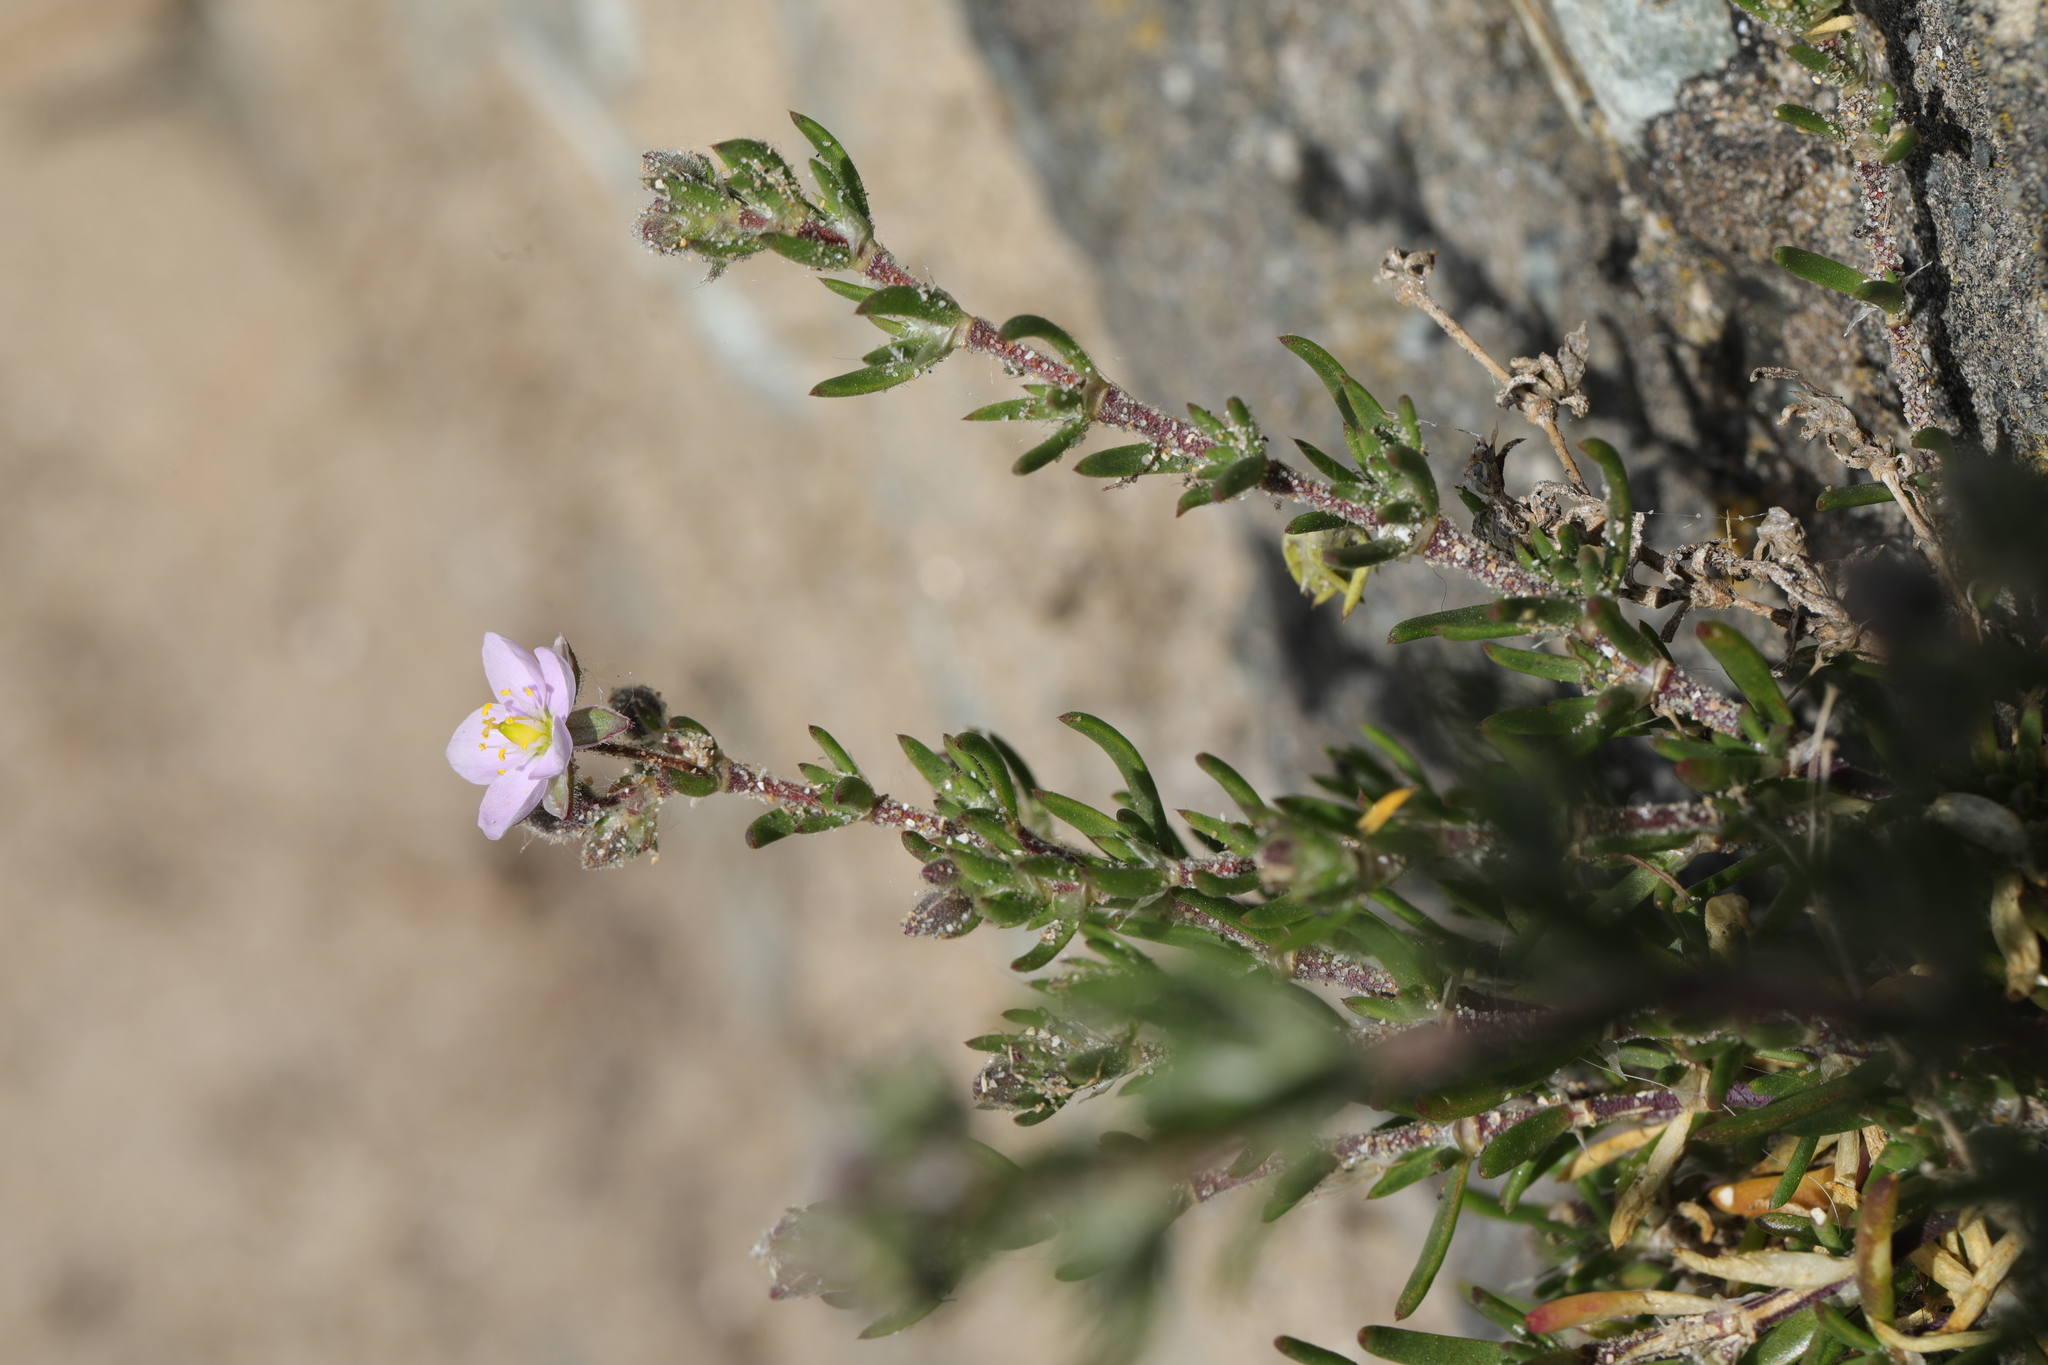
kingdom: Plantae
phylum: Tracheophyta
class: Magnoliopsida
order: Caryophyllales
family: Caryophyllaceae
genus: Spergularia
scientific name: Spergularia rupicola
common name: Cliff sand-spurrey
